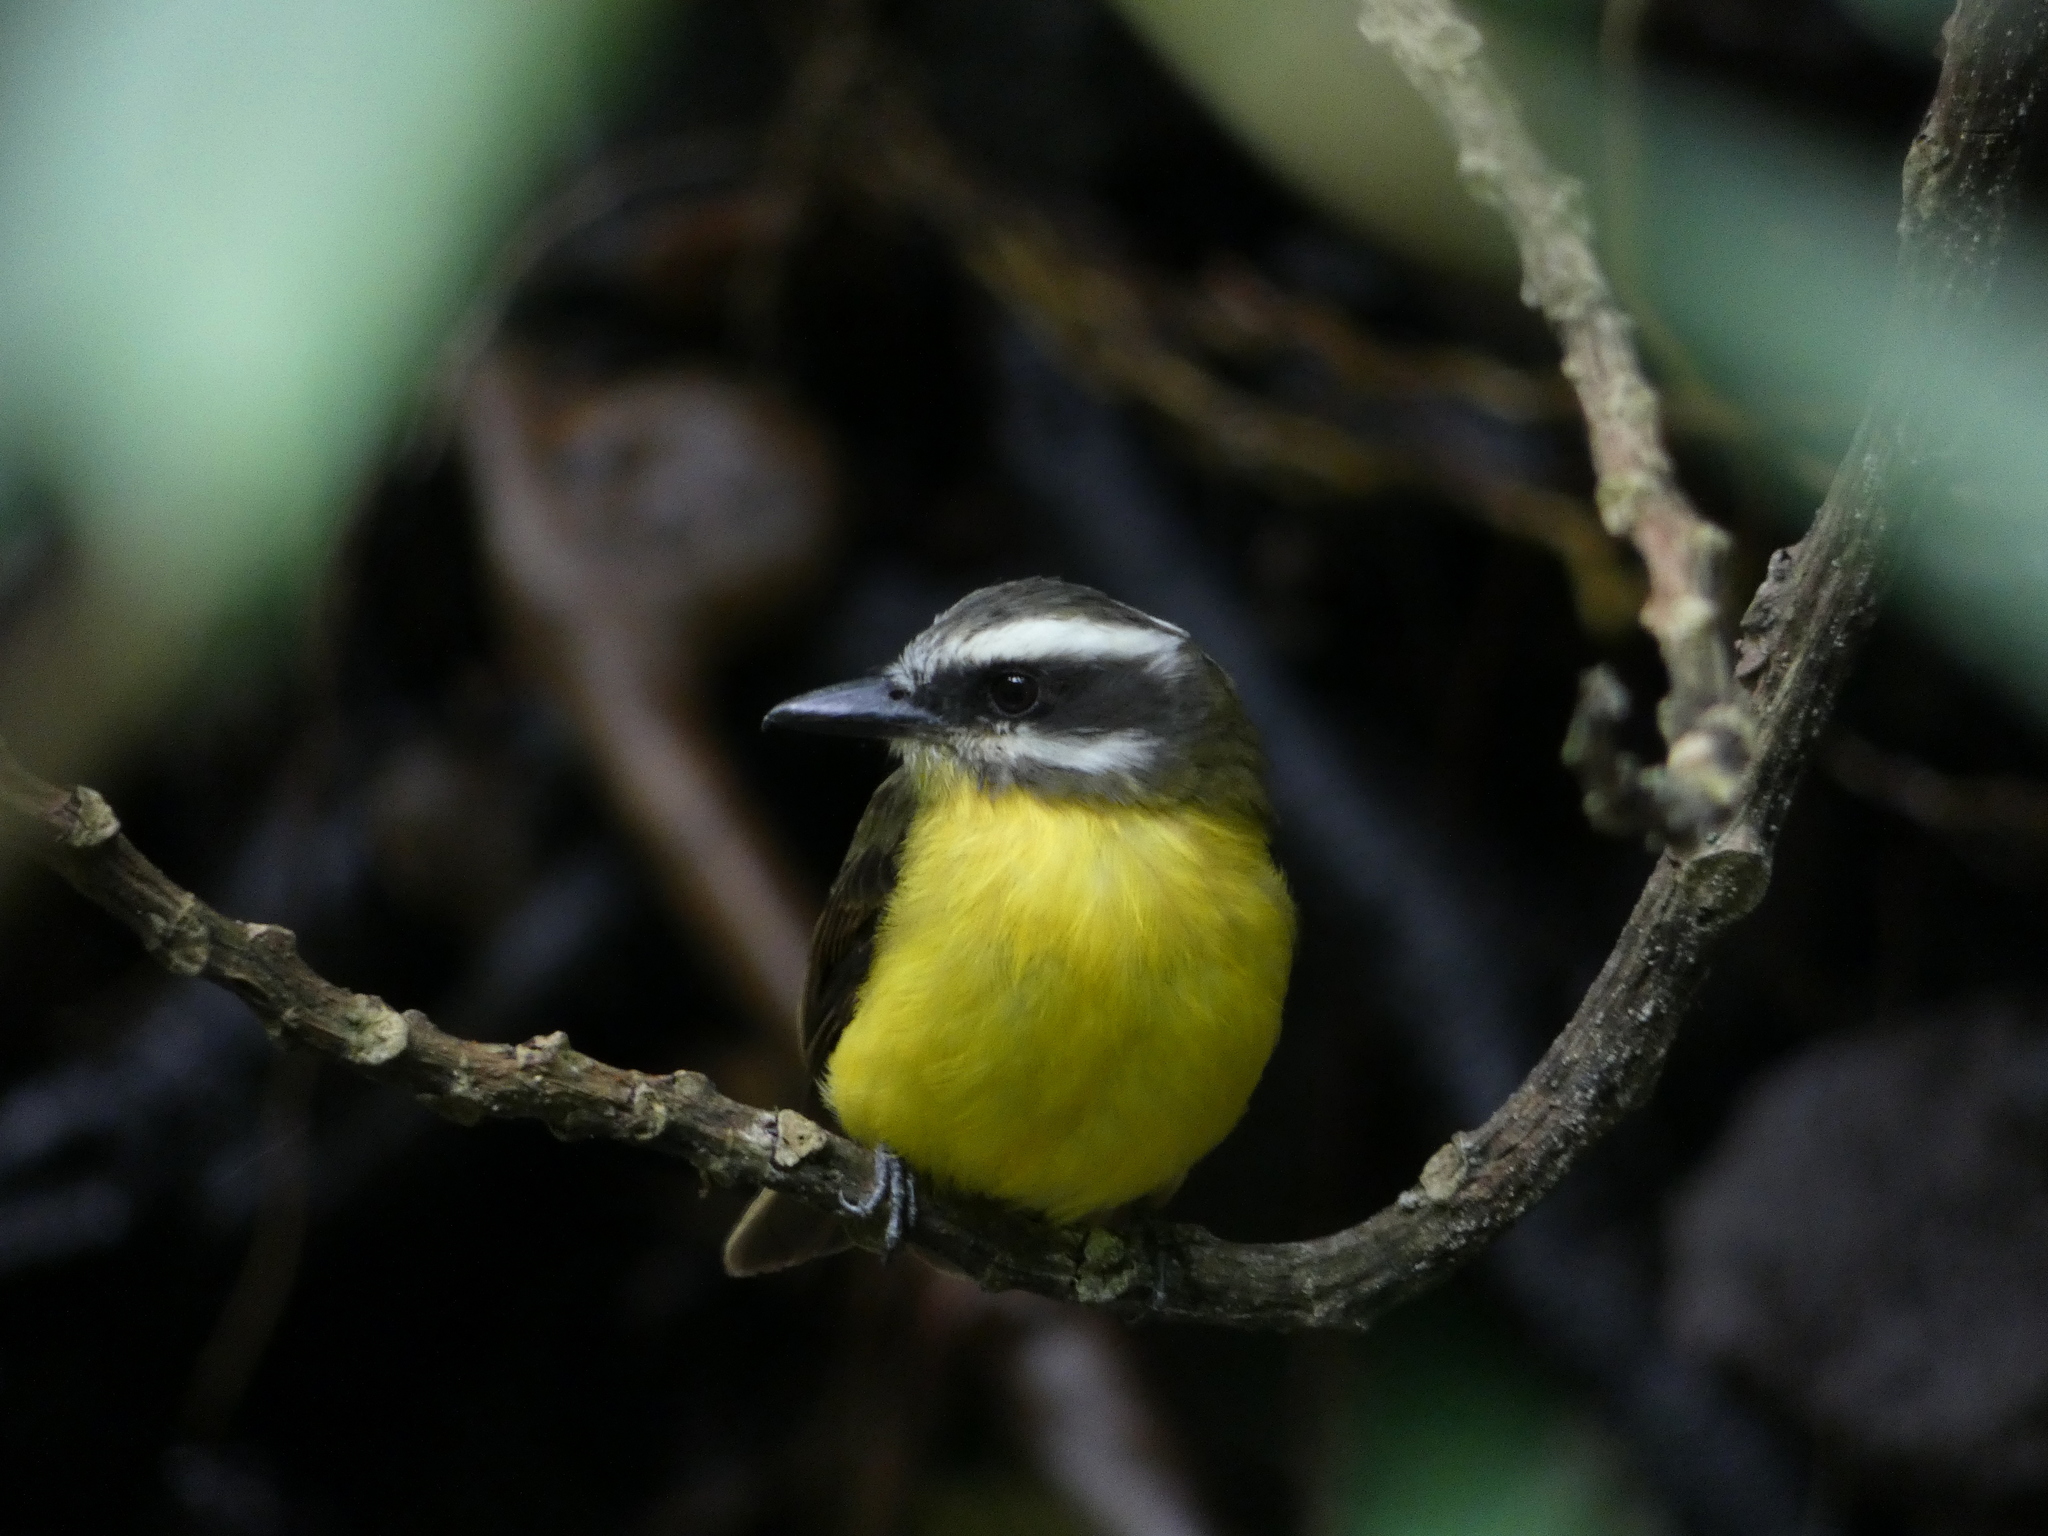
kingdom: Animalia
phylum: Chordata
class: Aves
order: Passeriformes
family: Tyrannidae
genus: Myiodynastes
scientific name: Myiodynastes hemichrysus
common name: Golden-bellied flycatcher
